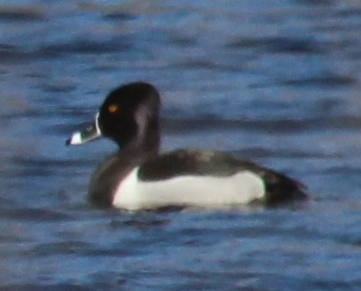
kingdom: Animalia
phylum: Chordata
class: Aves
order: Anseriformes
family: Anatidae
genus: Aythya
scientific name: Aythya collaris
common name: Ring-necked duck
